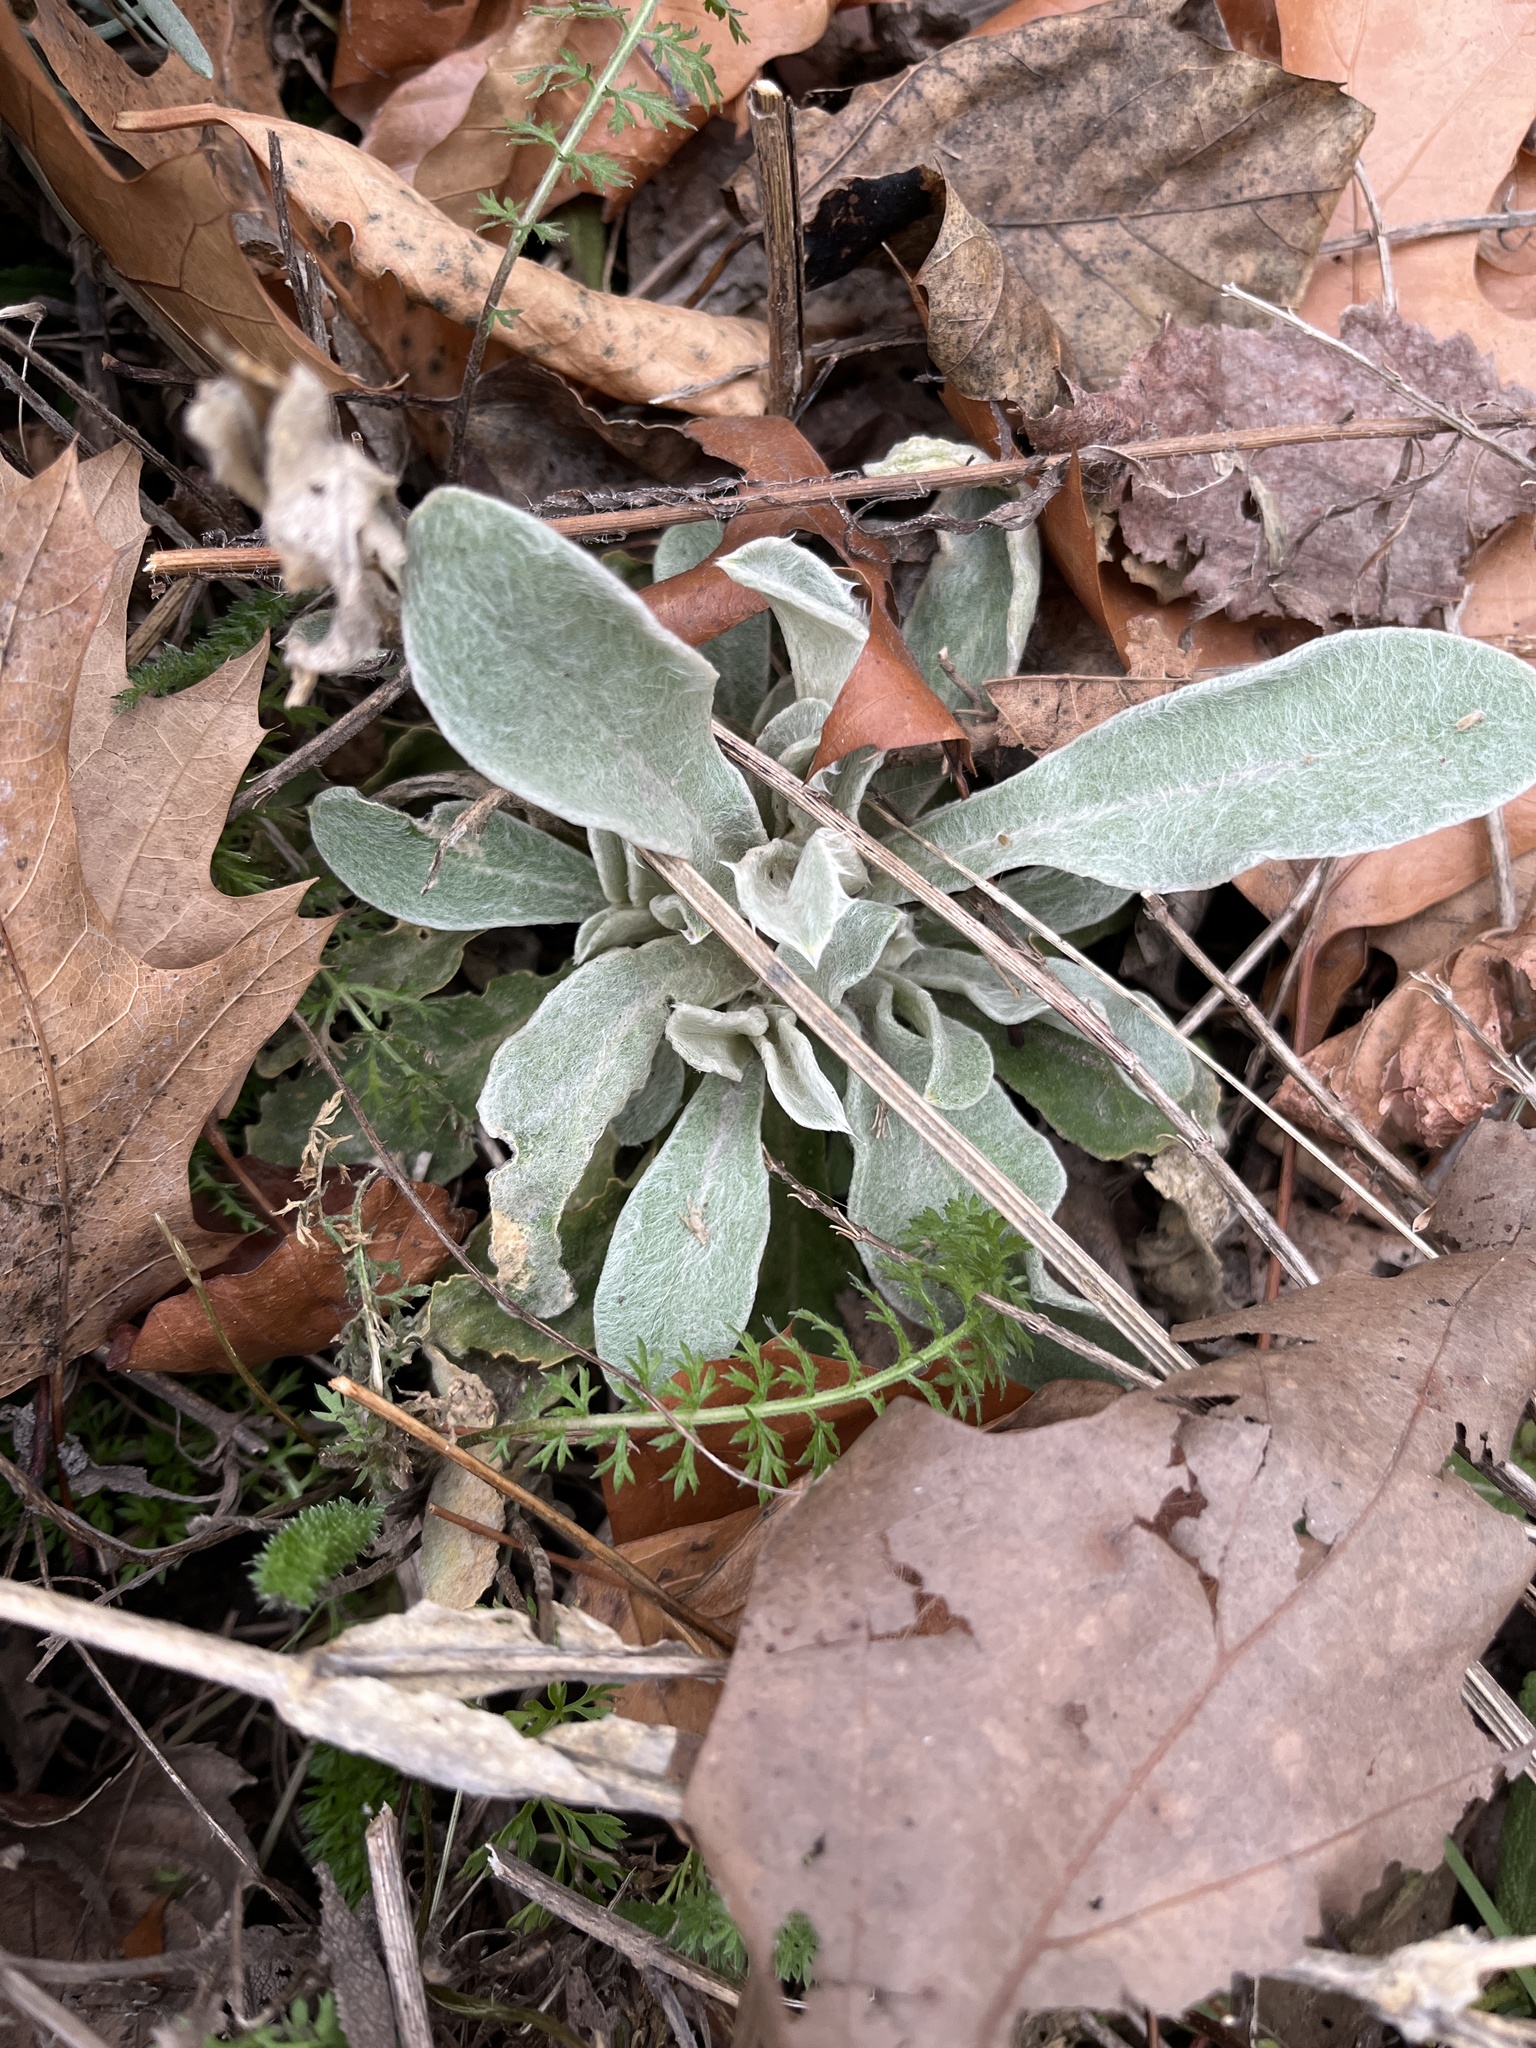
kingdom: Plantae
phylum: Tracheophyta
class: Magnoliopsida
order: Caryophyllales
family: Caryophyllaceae
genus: Silene
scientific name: Silene coronaria
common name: Rose campion
